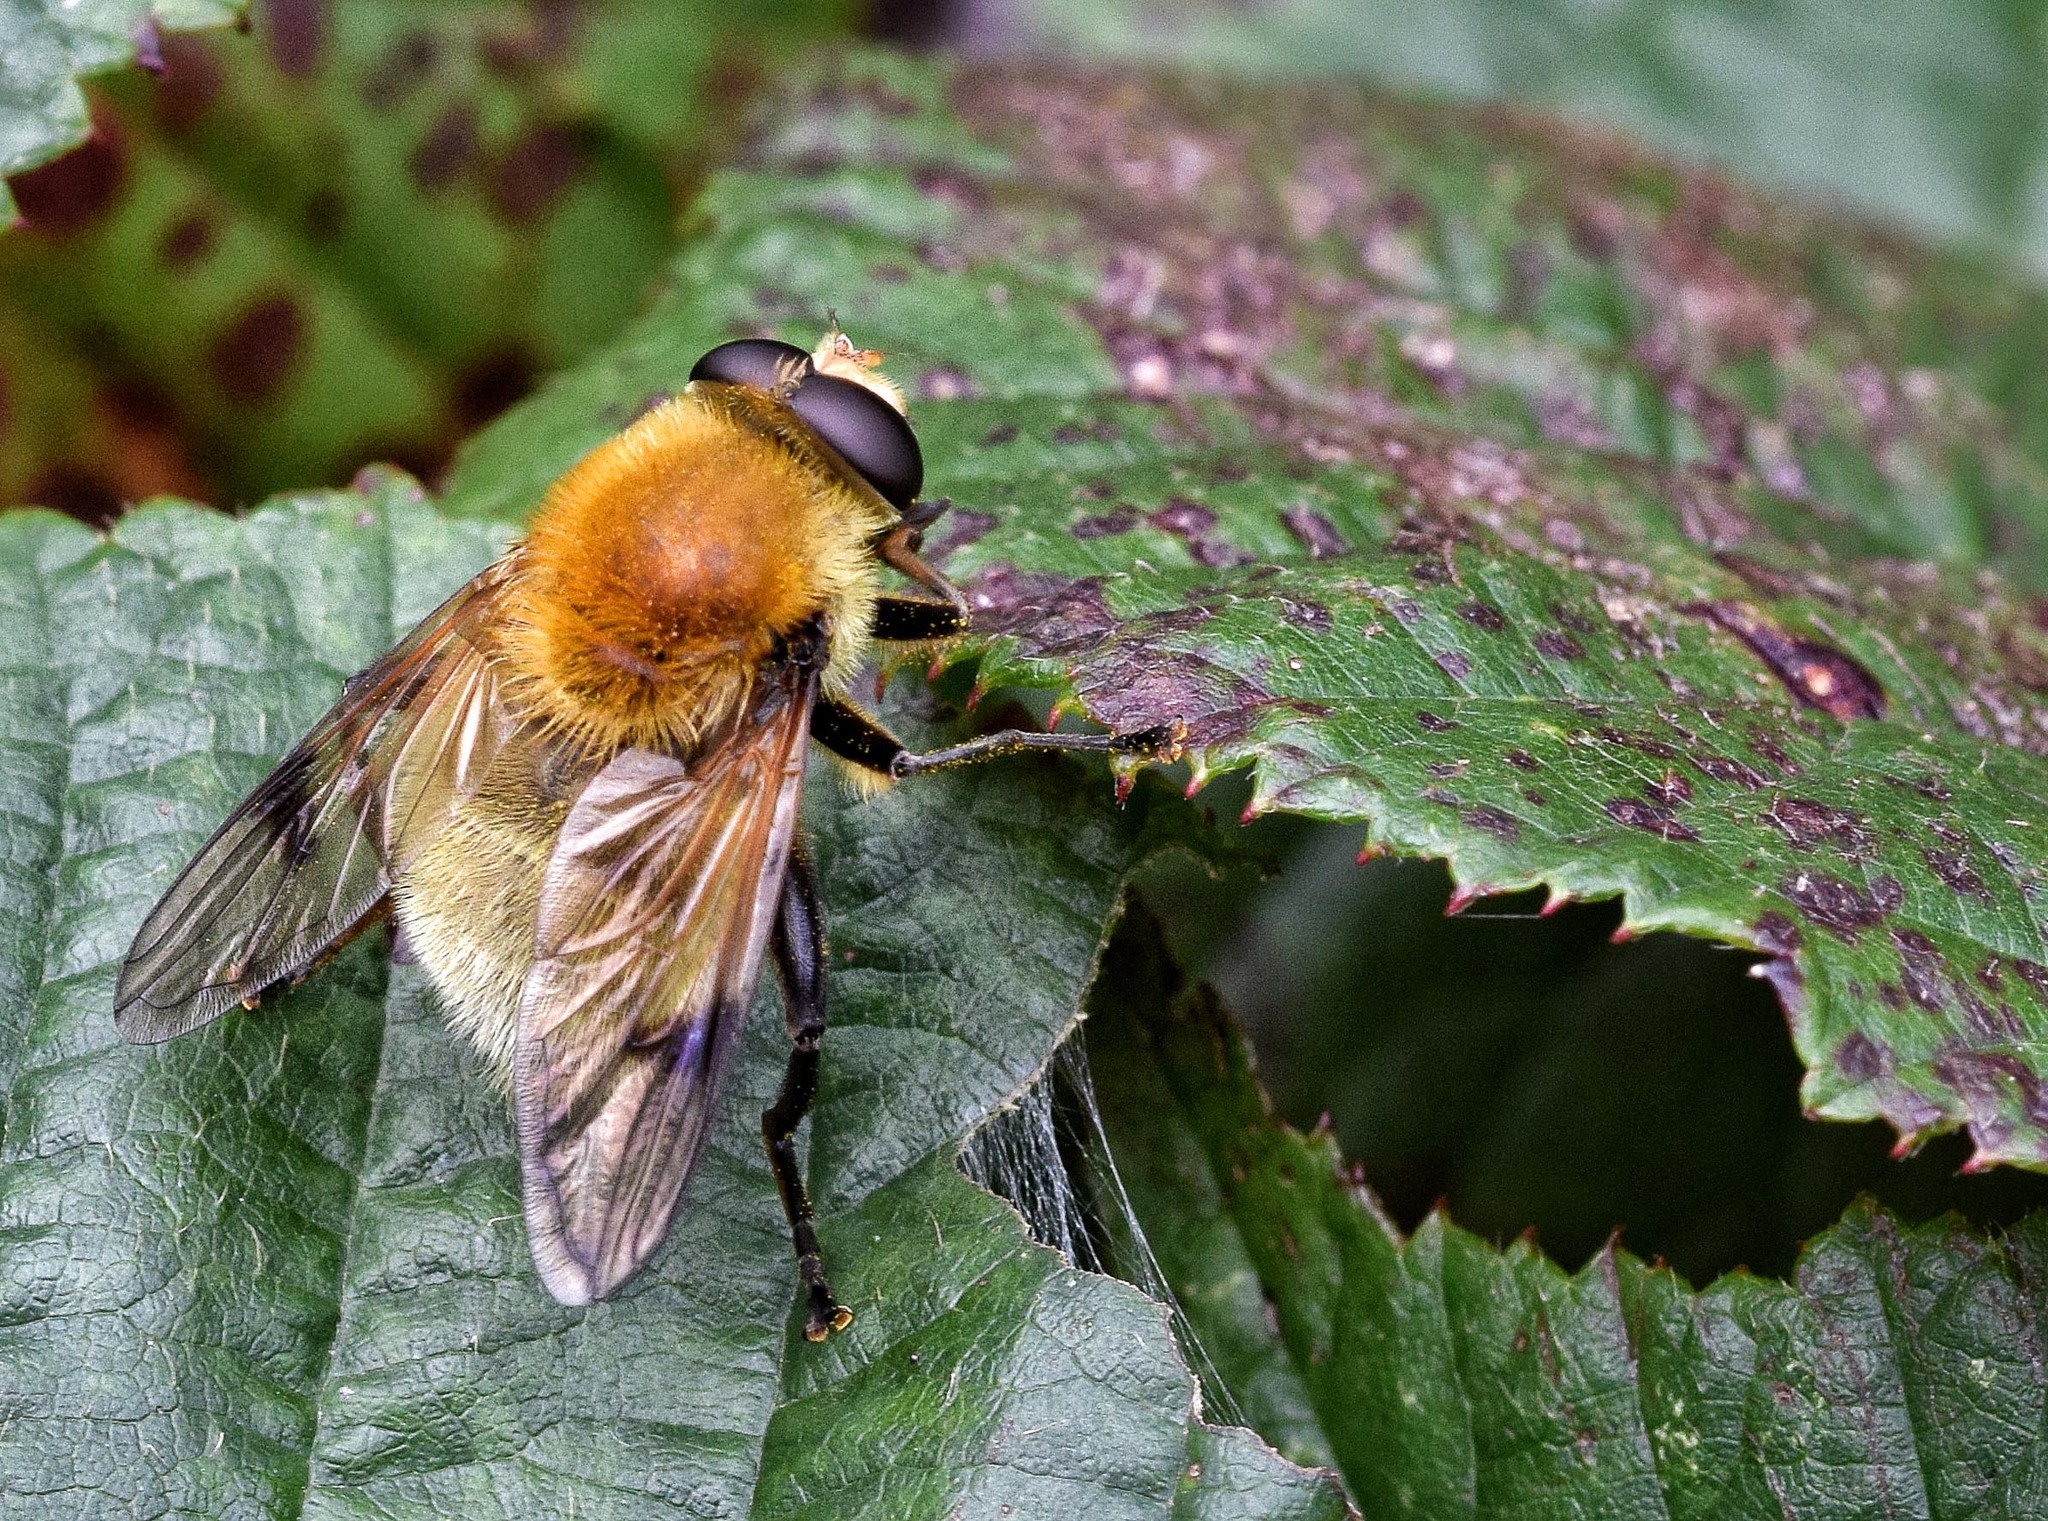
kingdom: Animalia
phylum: Arthropoda
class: Insecta
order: Diptera
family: Syrphidae
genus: Sericomyia
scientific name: Sericomyia superbiens
